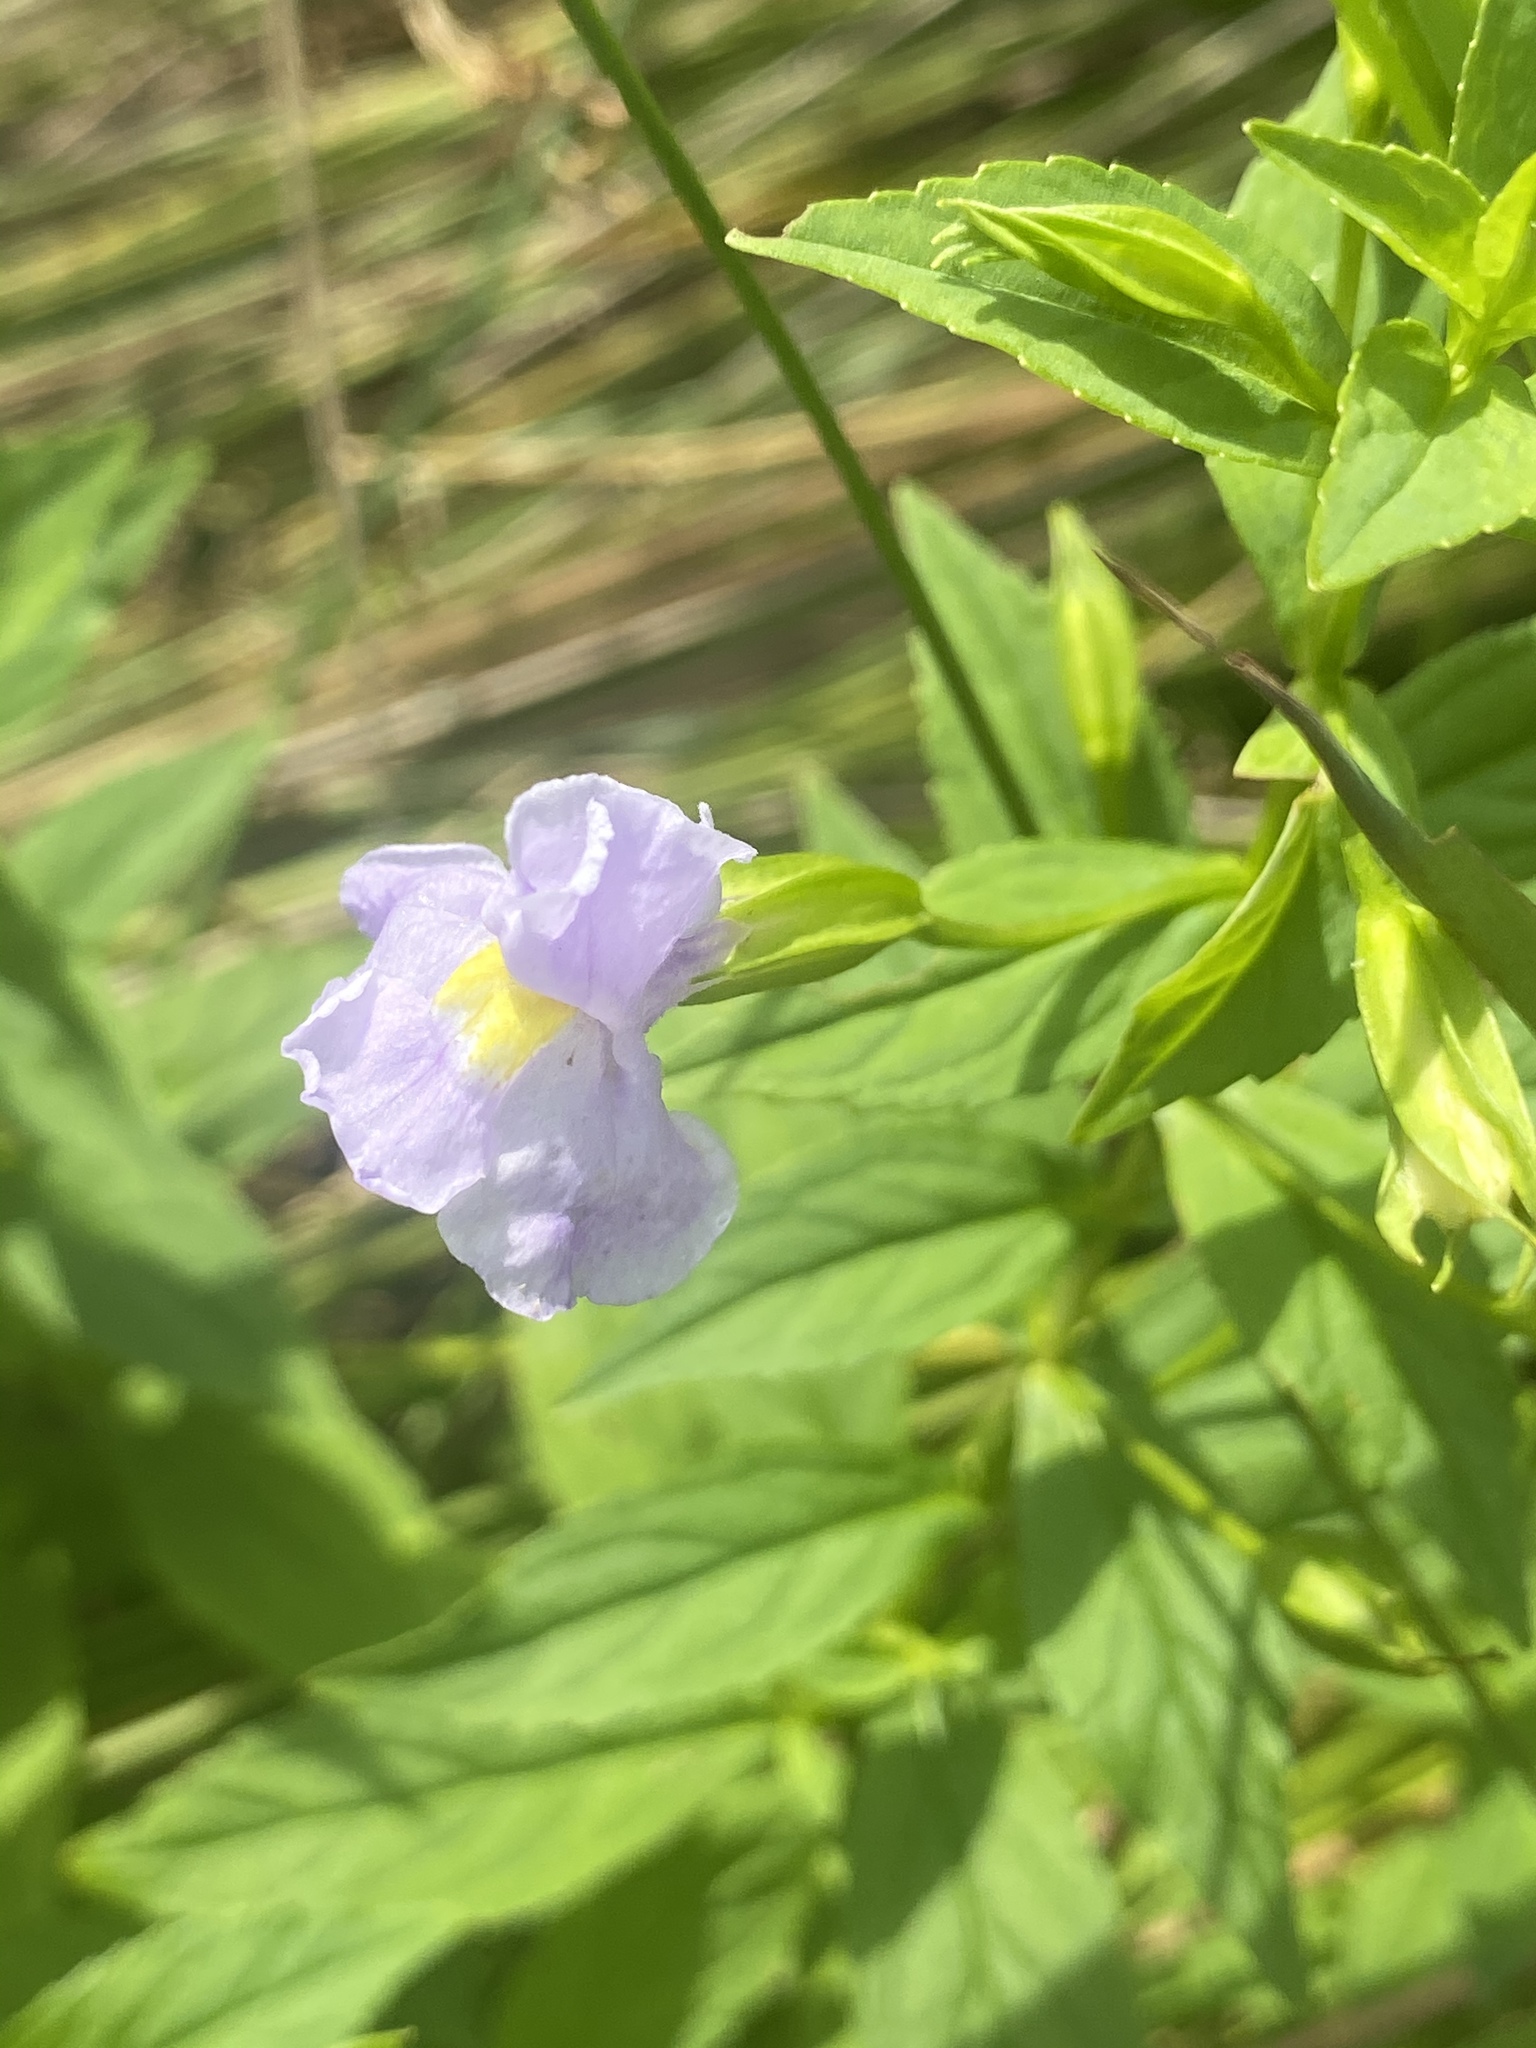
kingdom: Plantae
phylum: Tracheophyta
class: Magnoliopsida
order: Lamiales
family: Phrymaceae
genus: Mimulus
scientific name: Mimulus ringens
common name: Allegheny monkeyflower
